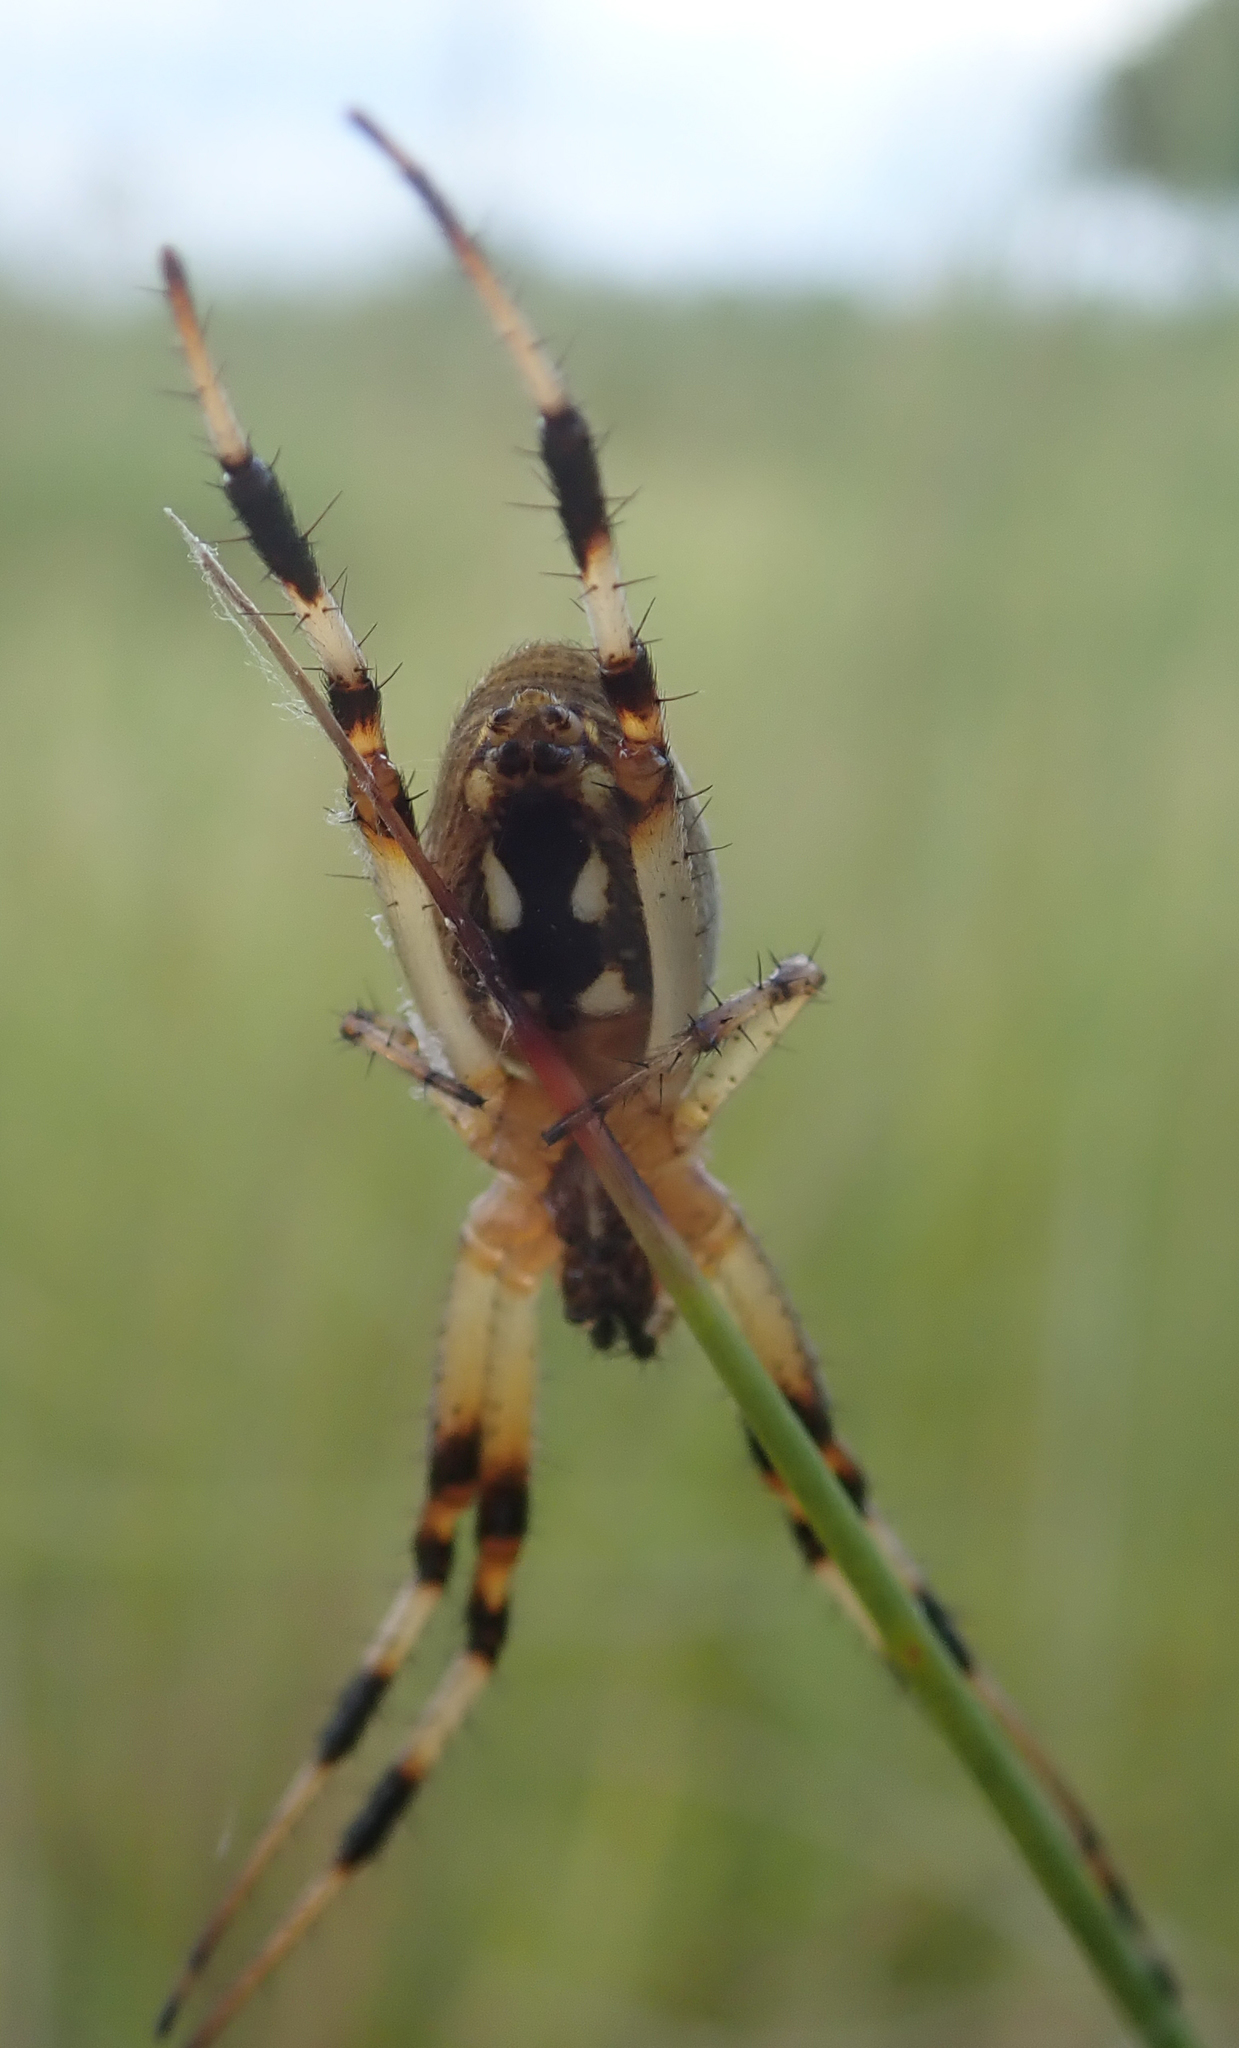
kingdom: Animalia
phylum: Arthropoda
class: Arachnida
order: Araneae
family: Araneidae
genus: Neoscona
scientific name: Neoscona moreli
